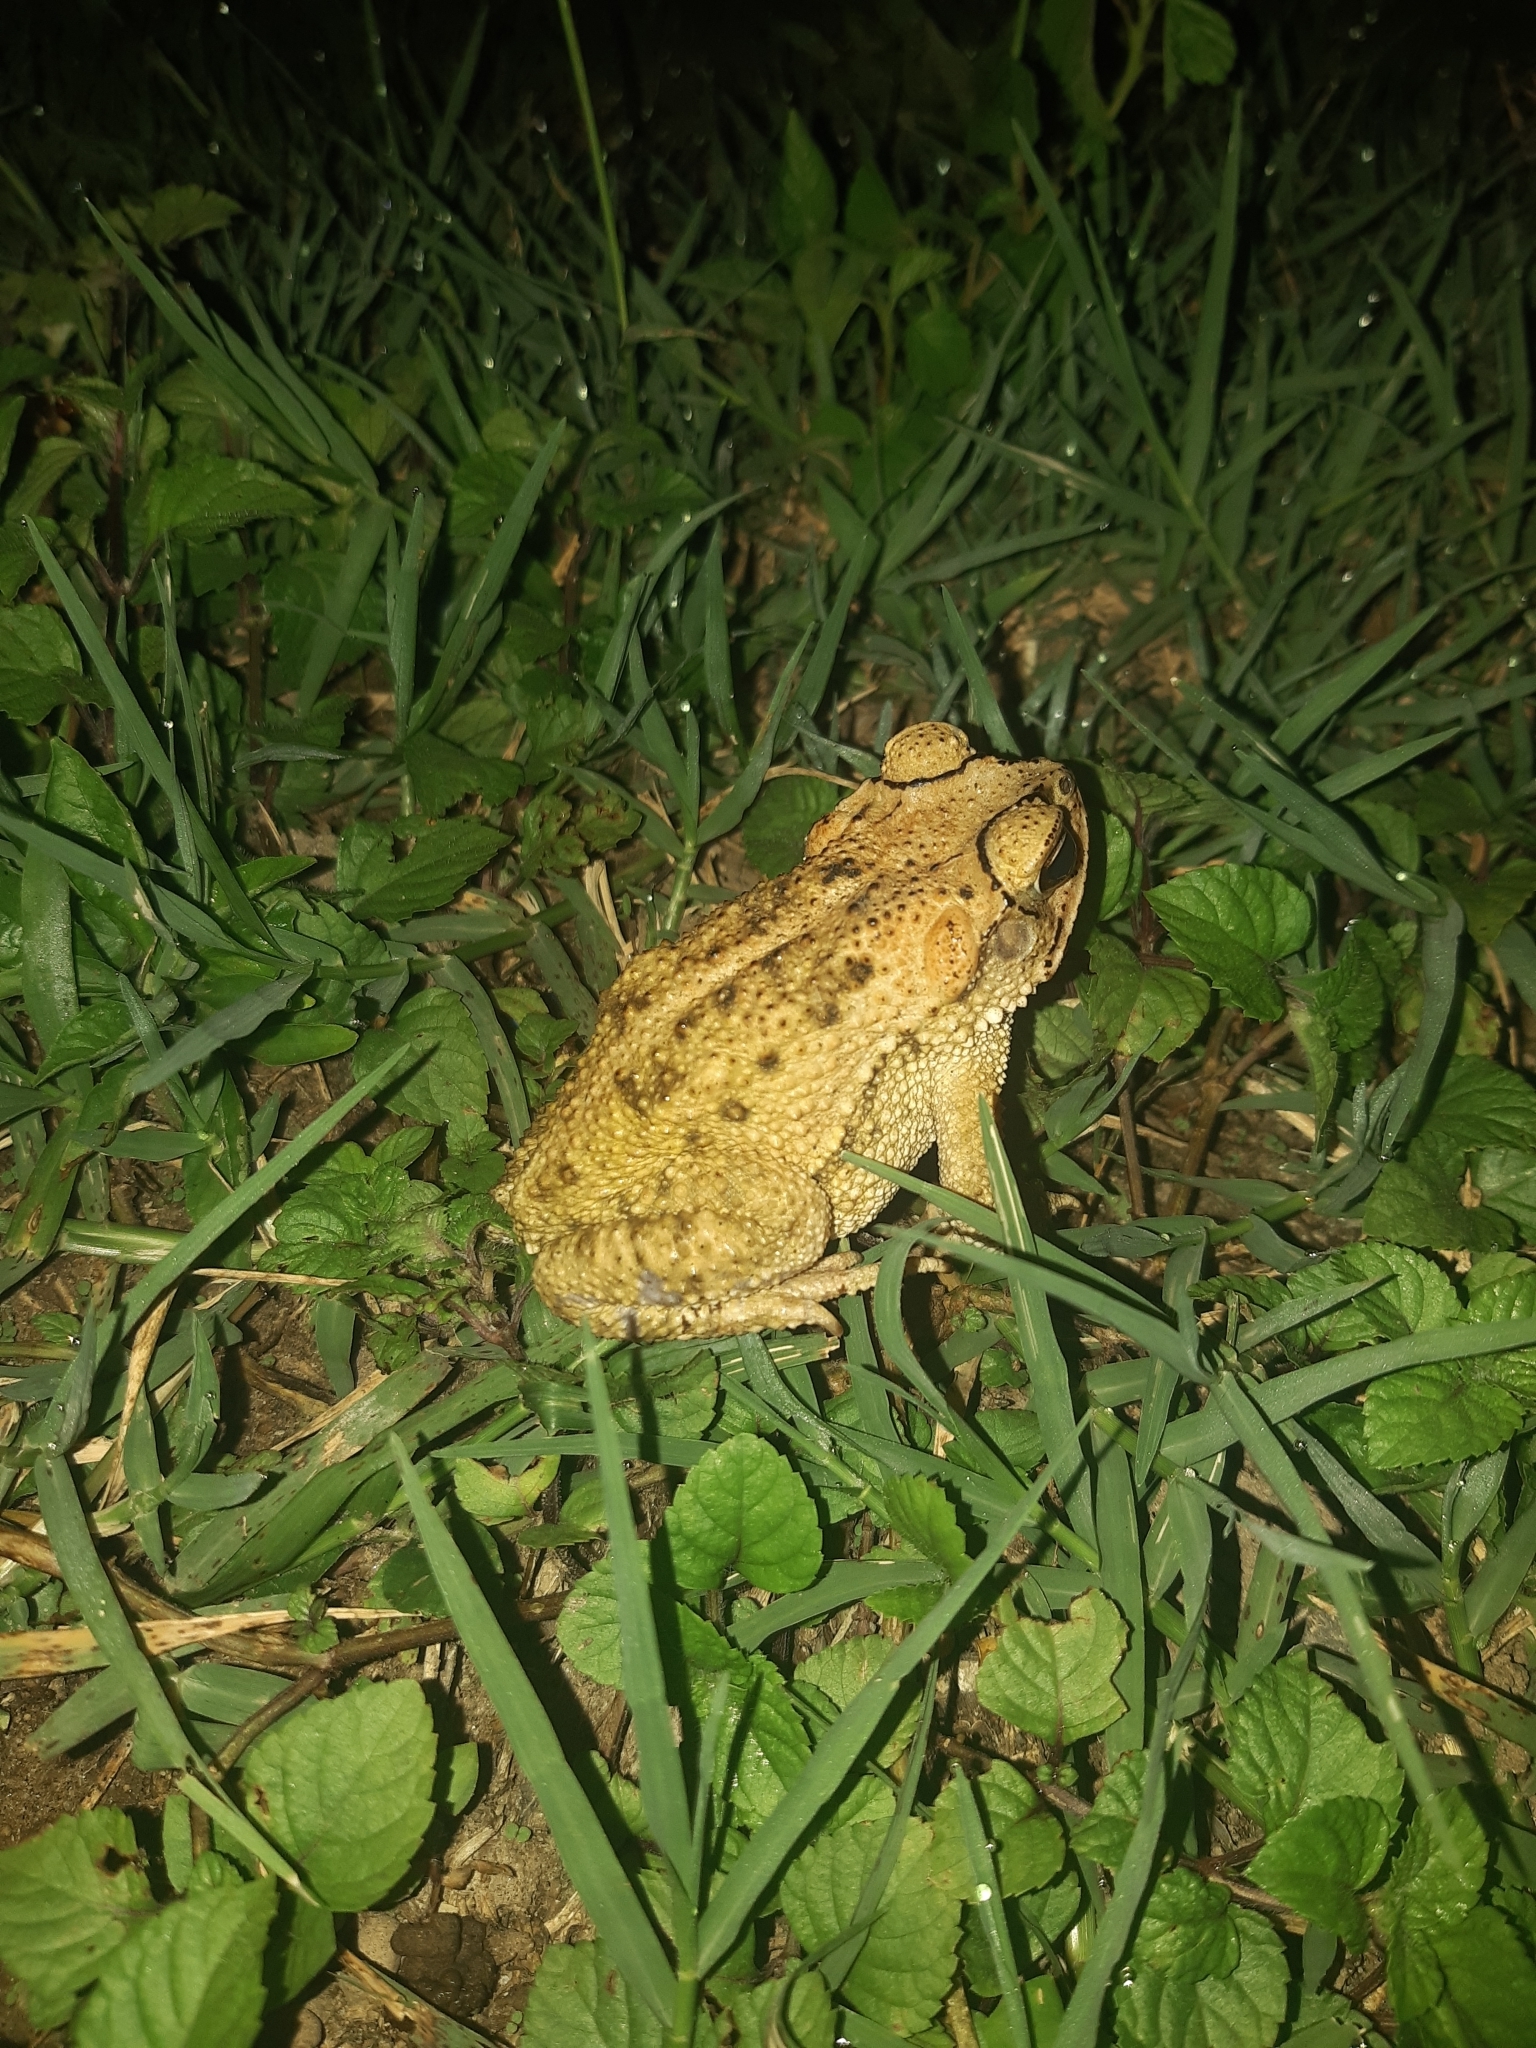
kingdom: Animalia
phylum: Chordata
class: Amphibia
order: Anura
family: Bufonidae
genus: Incilius
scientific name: Incilius luetkenii
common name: Yellow toad
